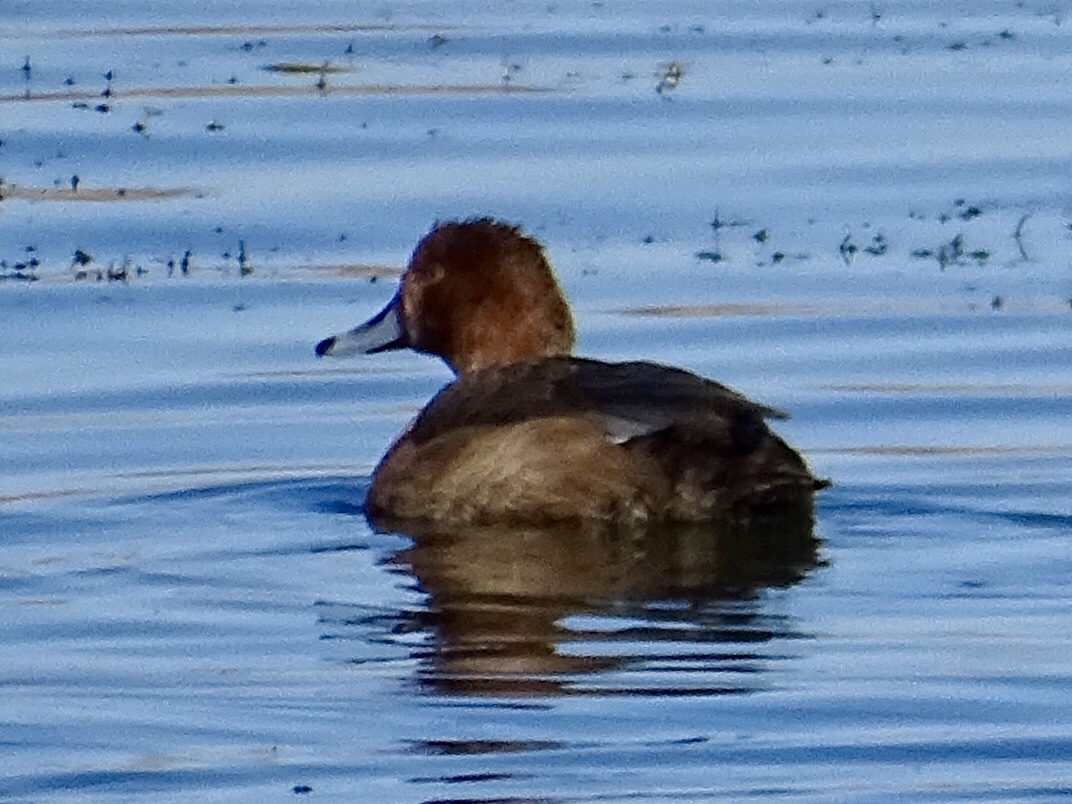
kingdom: Animalia
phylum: Chordata
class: Aves
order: Anseriformes
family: Anatidae
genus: Aythya
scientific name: Aythya americana
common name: Redhead
